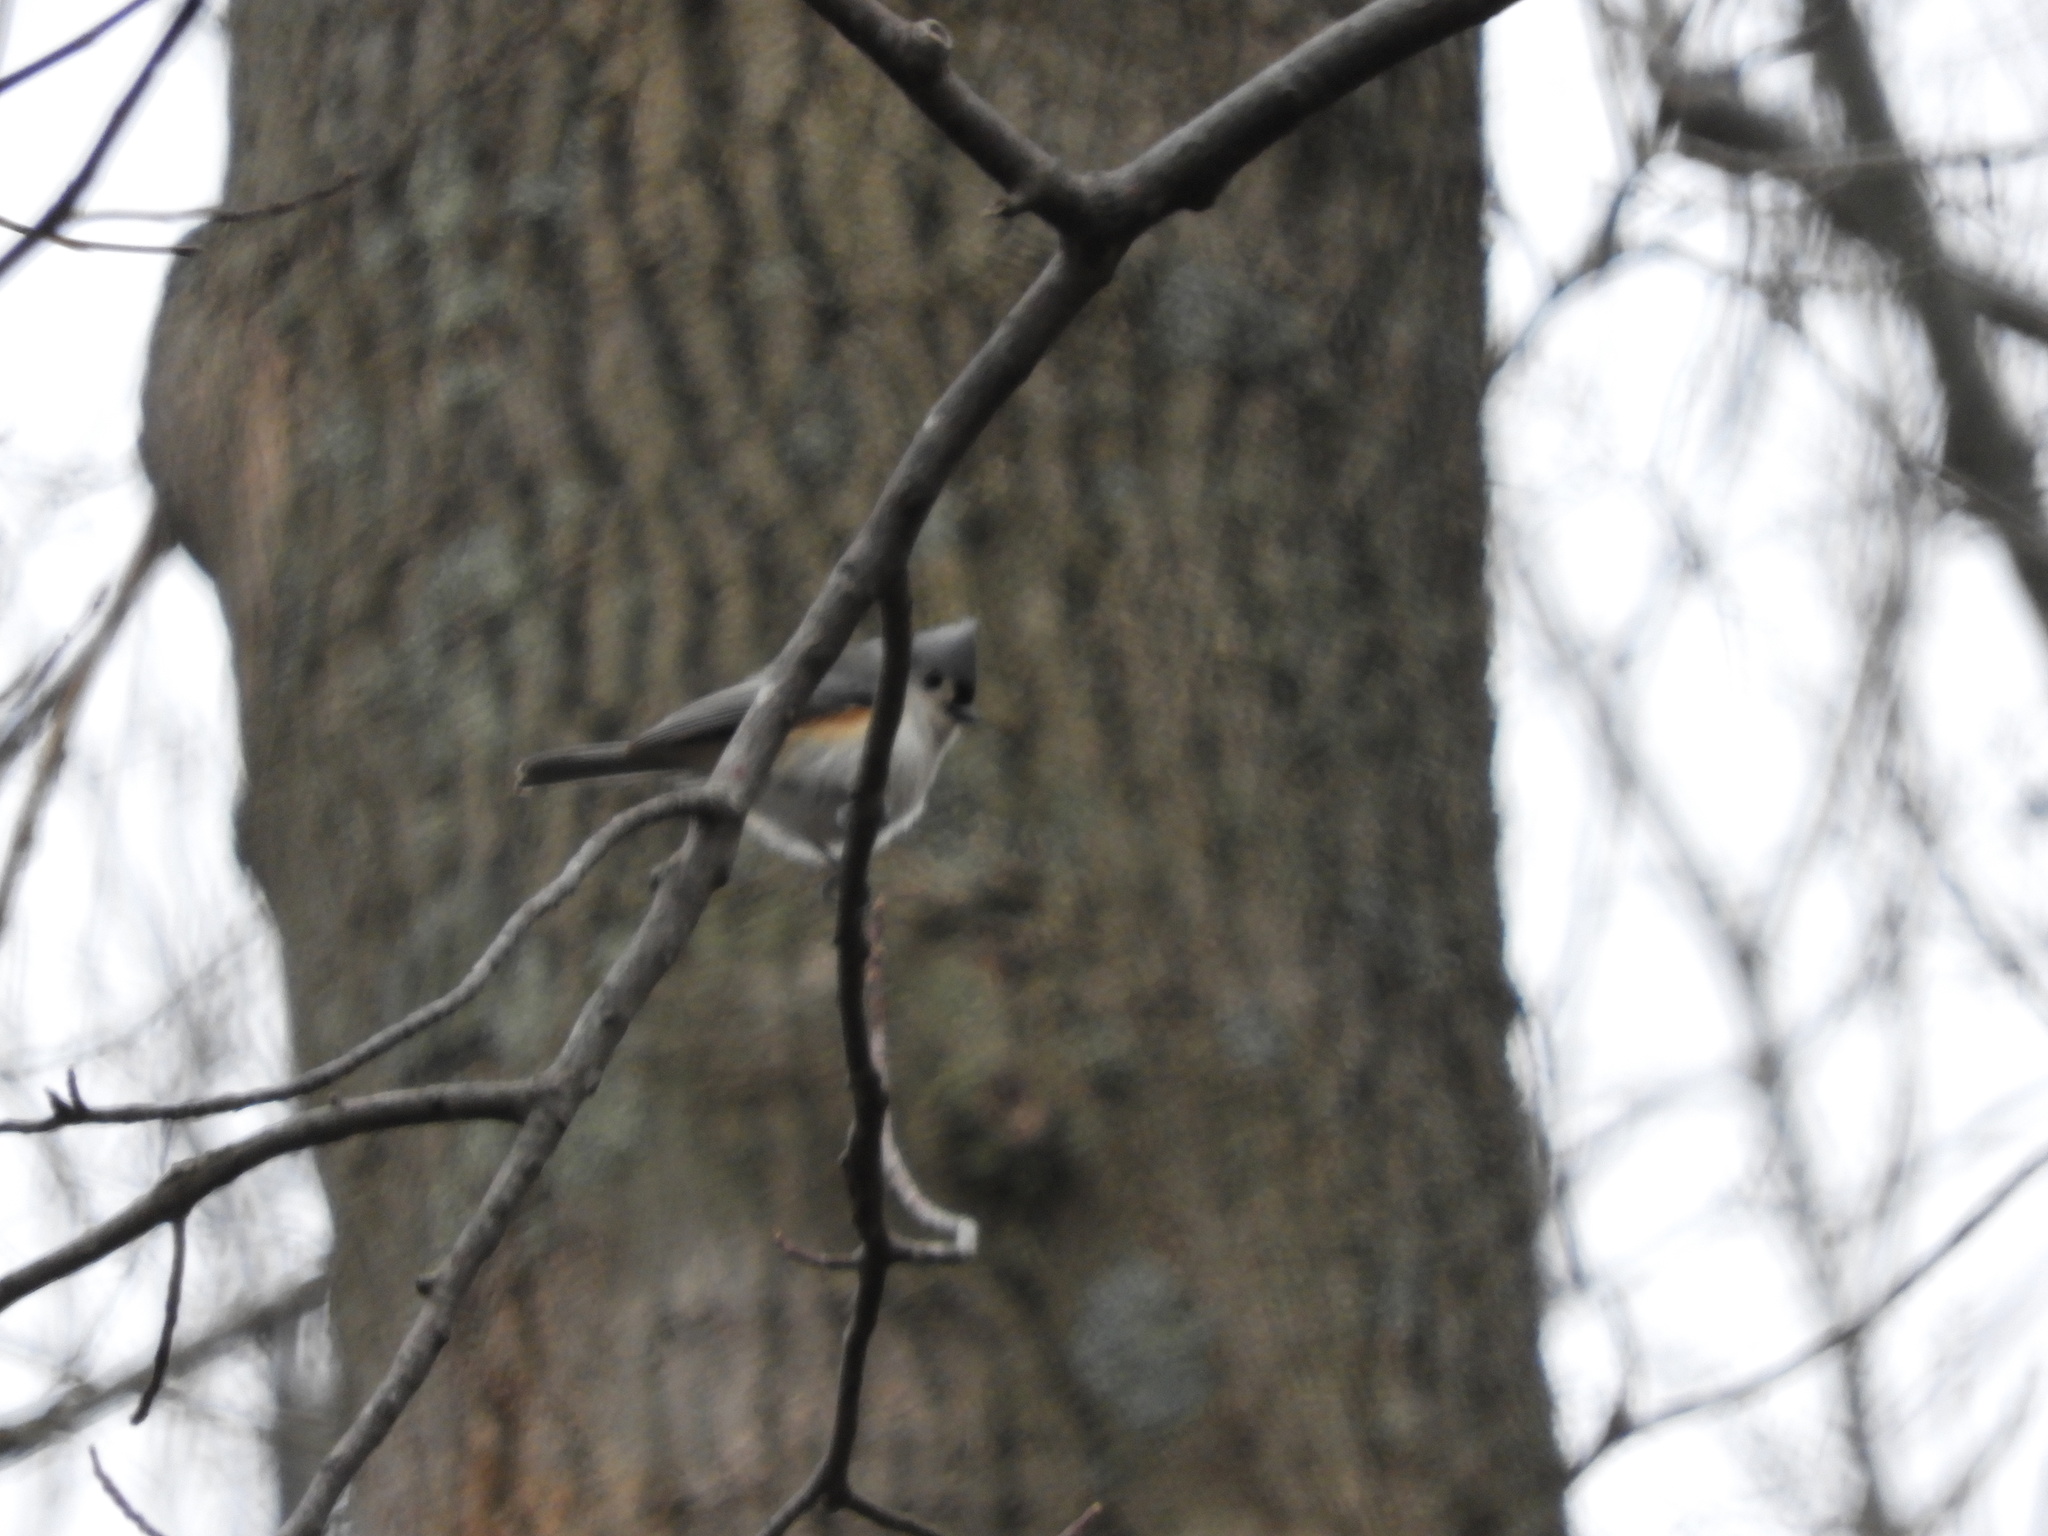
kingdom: Animalia
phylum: Chordata
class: Aves
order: Passeriformes
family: Paridae
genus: Baeolophus
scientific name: Baeolophus bicolor
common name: Tufted titmouse
